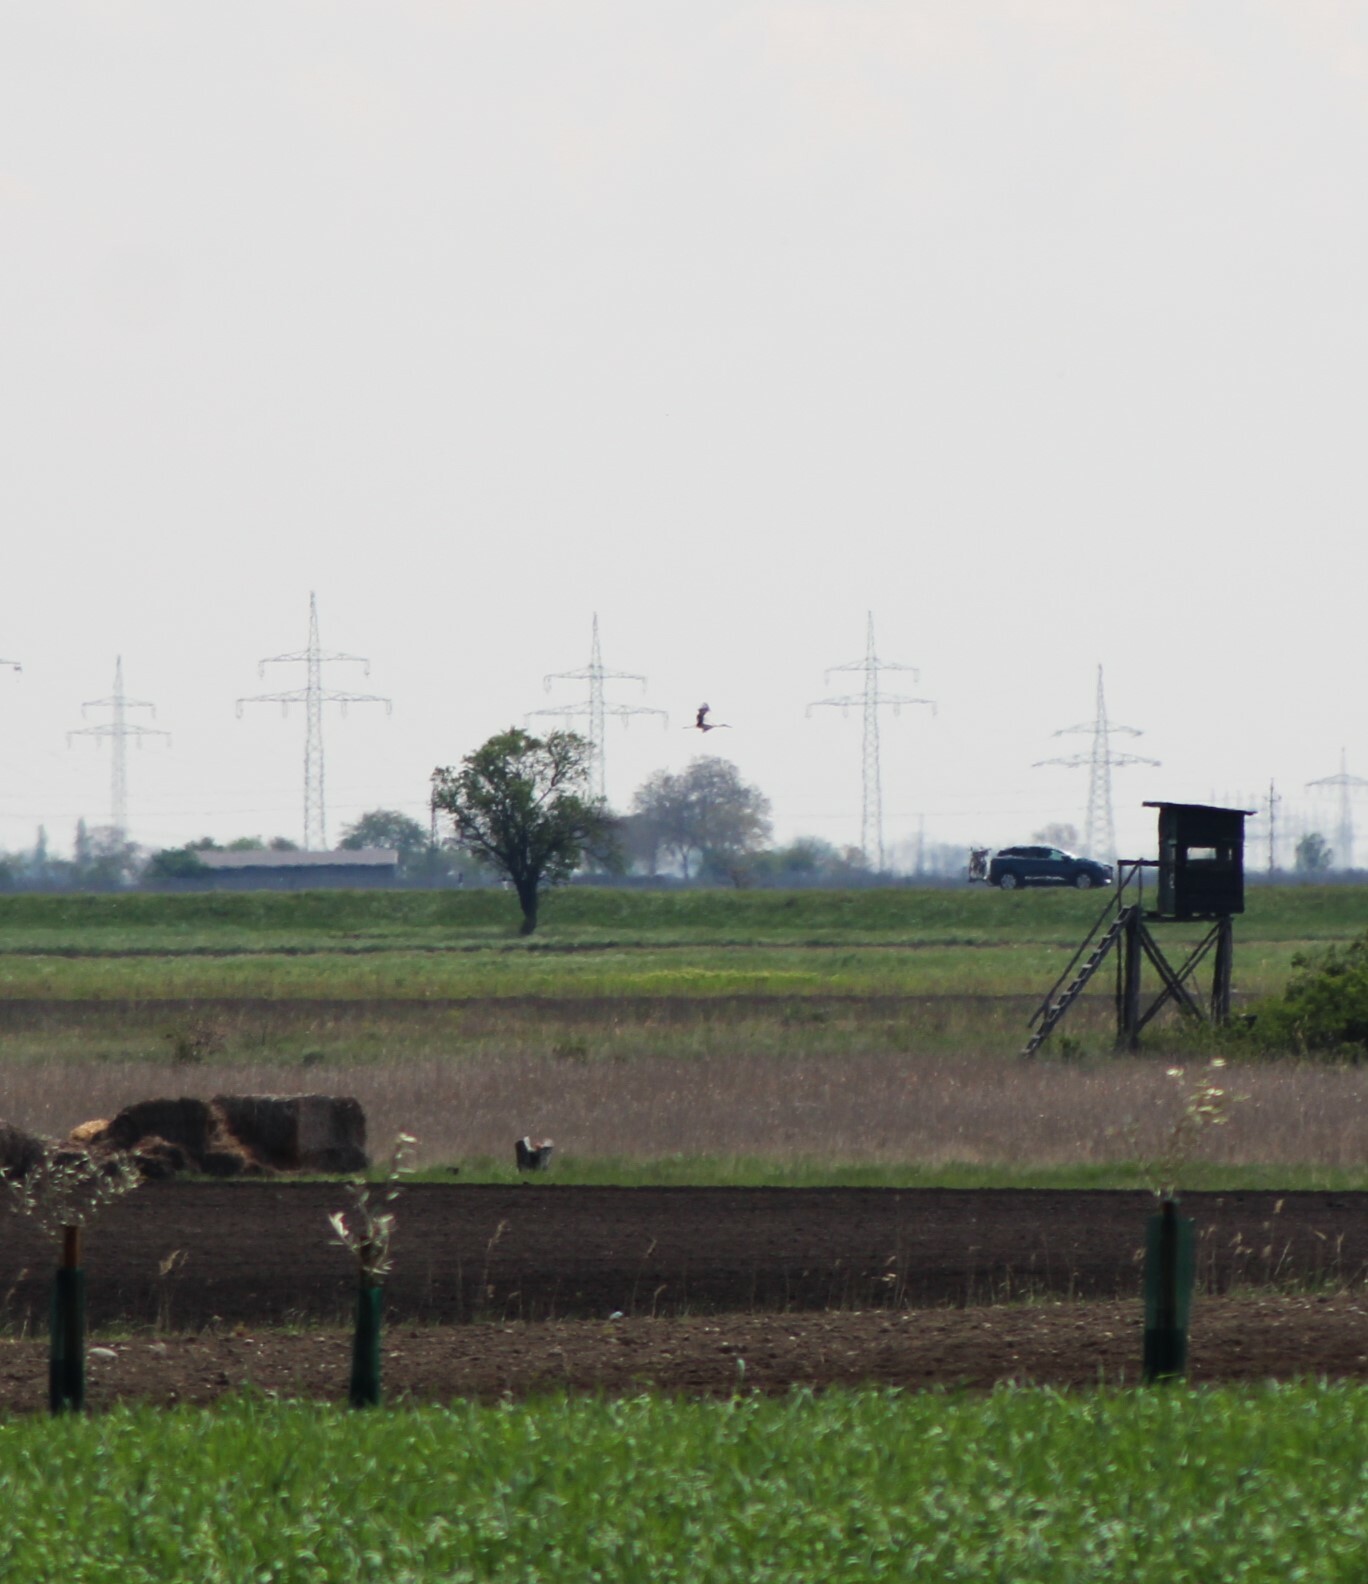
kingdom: Animalia
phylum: Chordata
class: Aves
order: Ciconiiformes
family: Ciconiidae
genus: Ciconia
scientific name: Ciconia ciconia
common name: White stork
